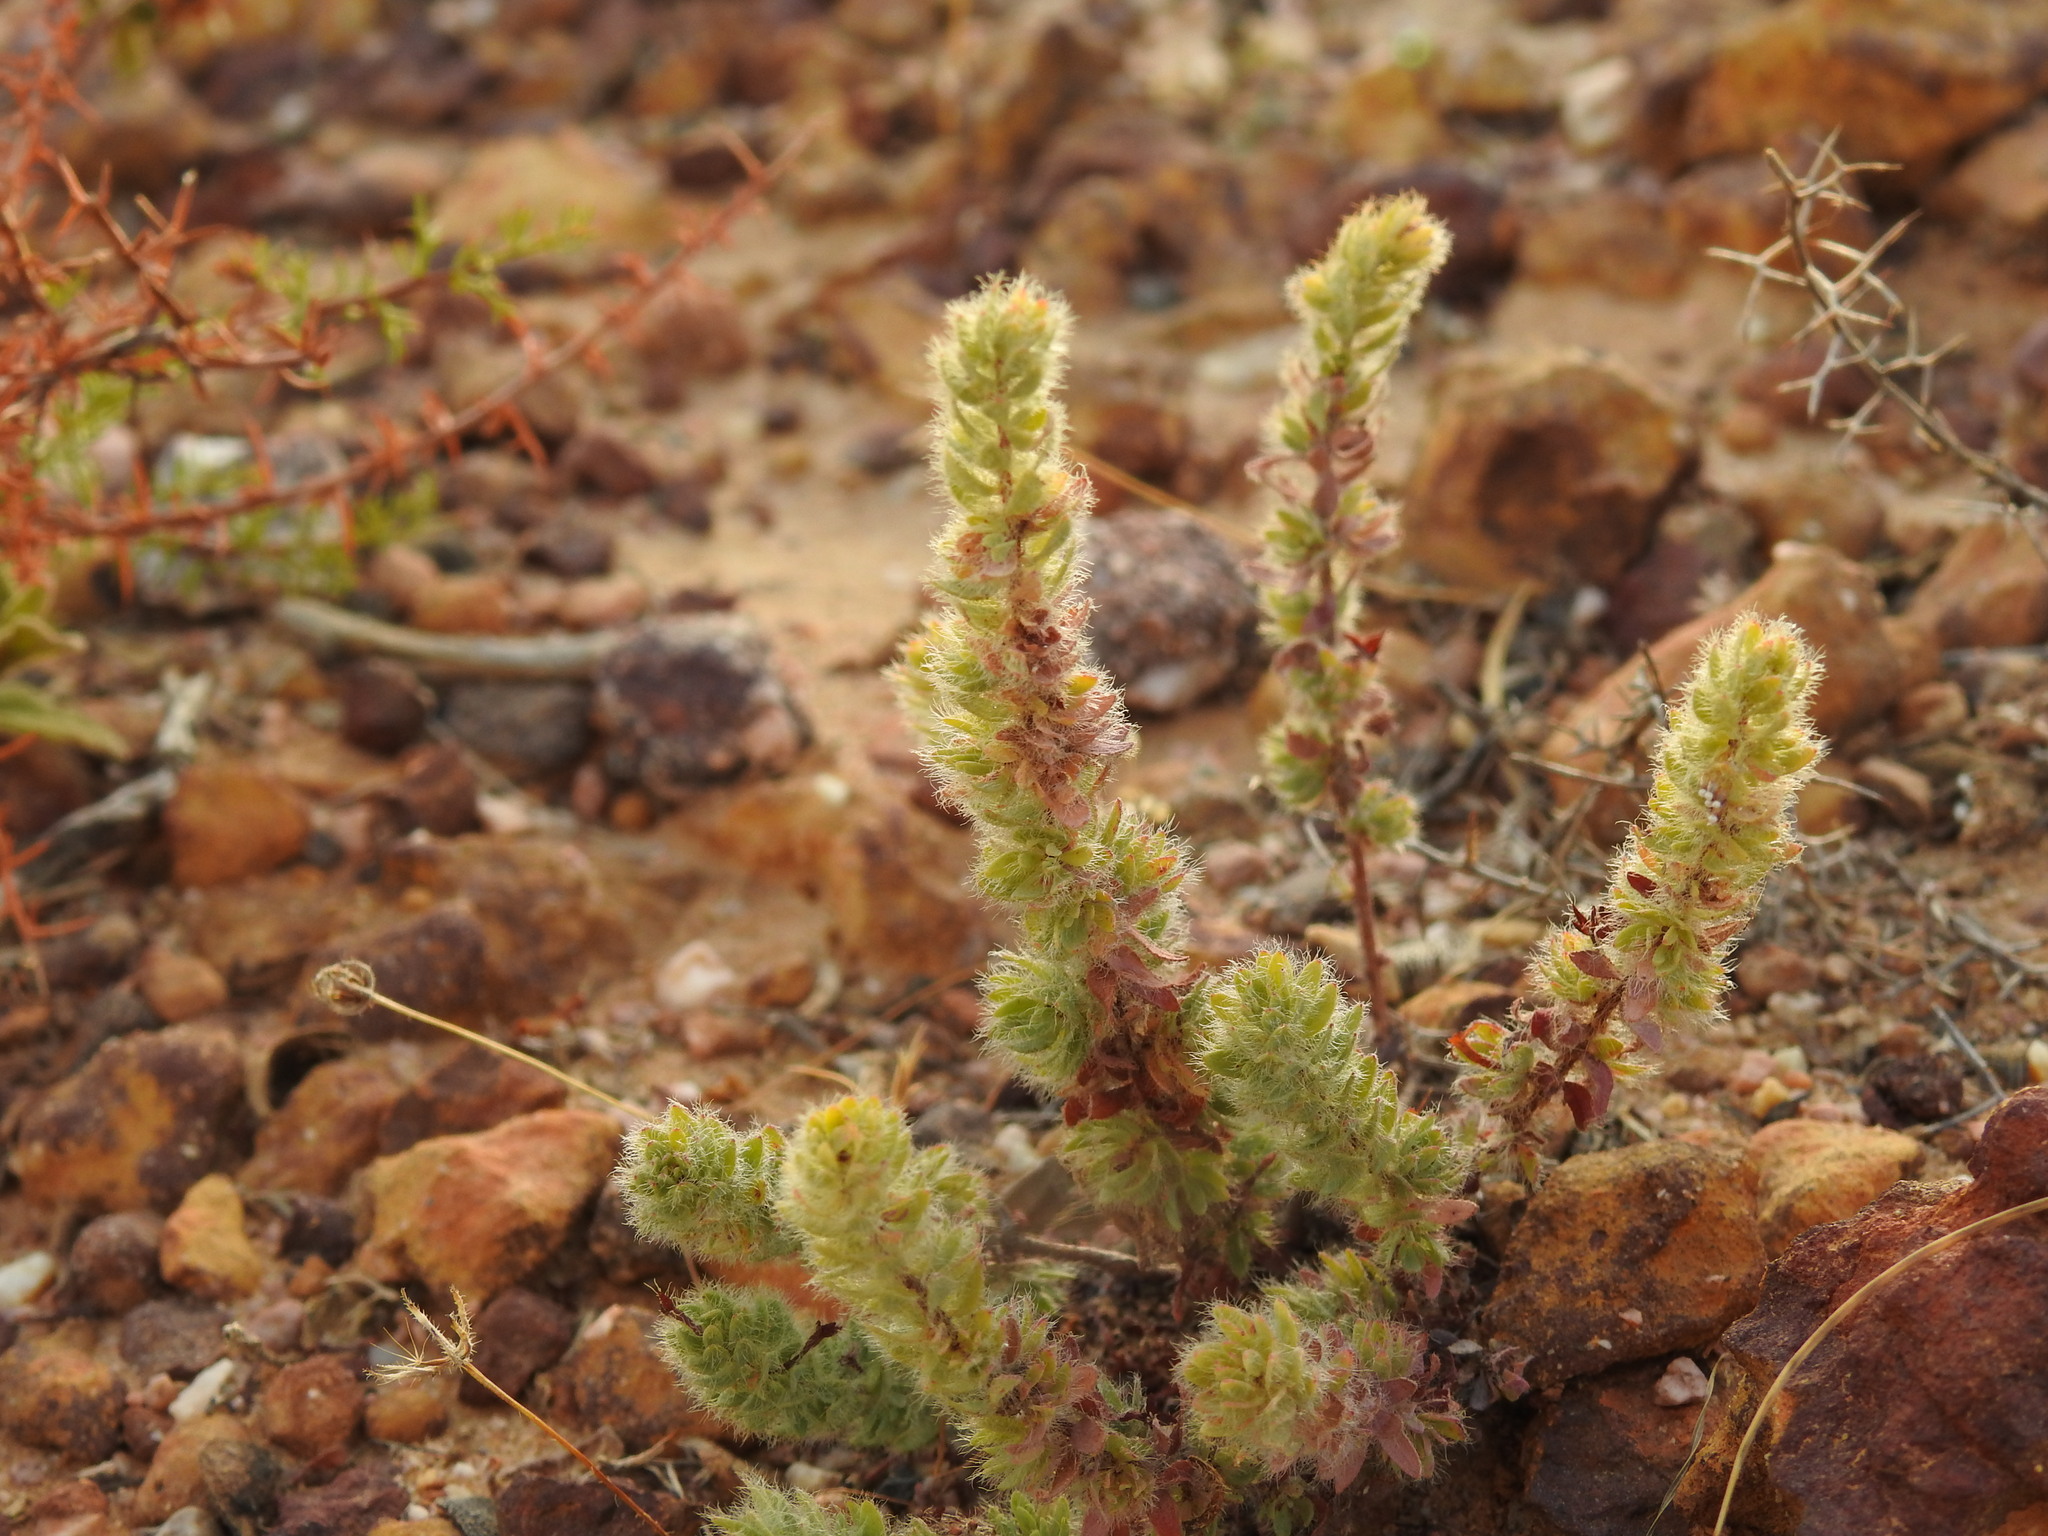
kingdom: Plantae
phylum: Tracheophyta
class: Magnoliopsida
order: Malvales
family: Thymelaeaceae
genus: Thymelaea
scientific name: Thymelaea villosa
